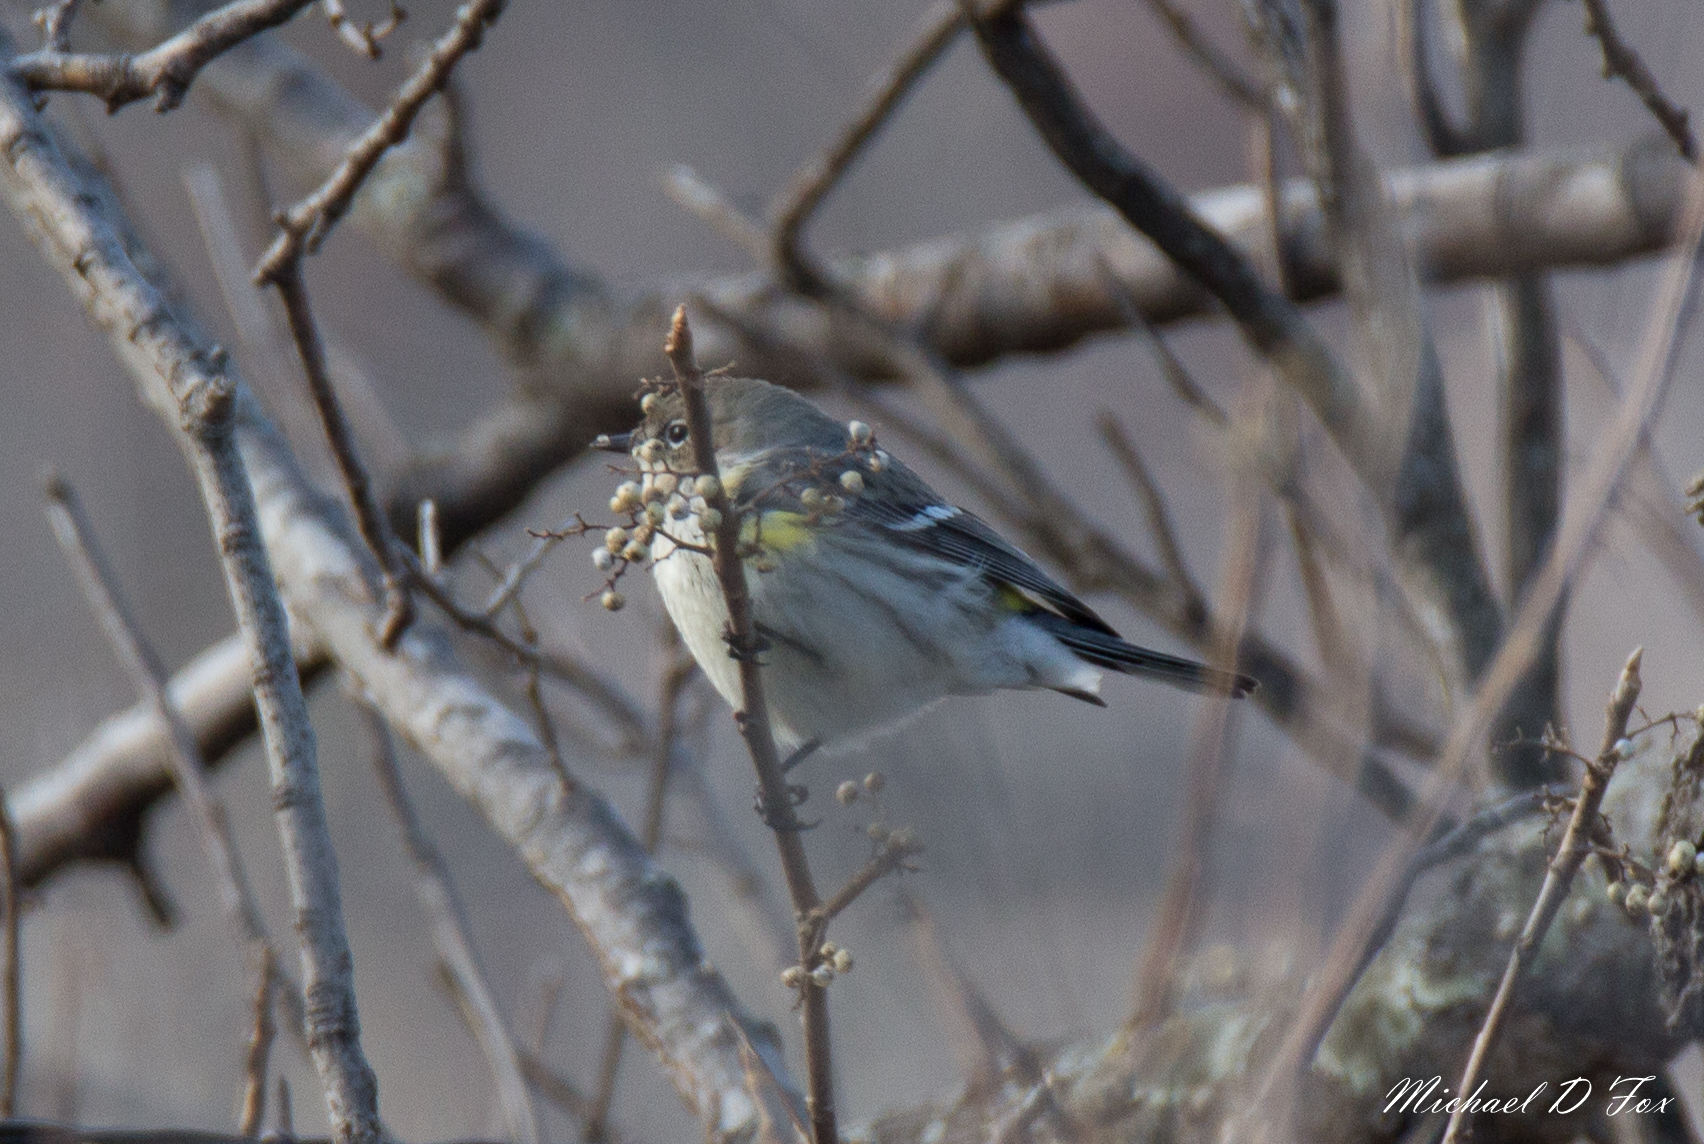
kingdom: Animalia
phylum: Chordata
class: Aves
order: Passeriformes
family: Parulidae
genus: Setophaga
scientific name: Setophaga coronata
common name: Myrtle warbler
